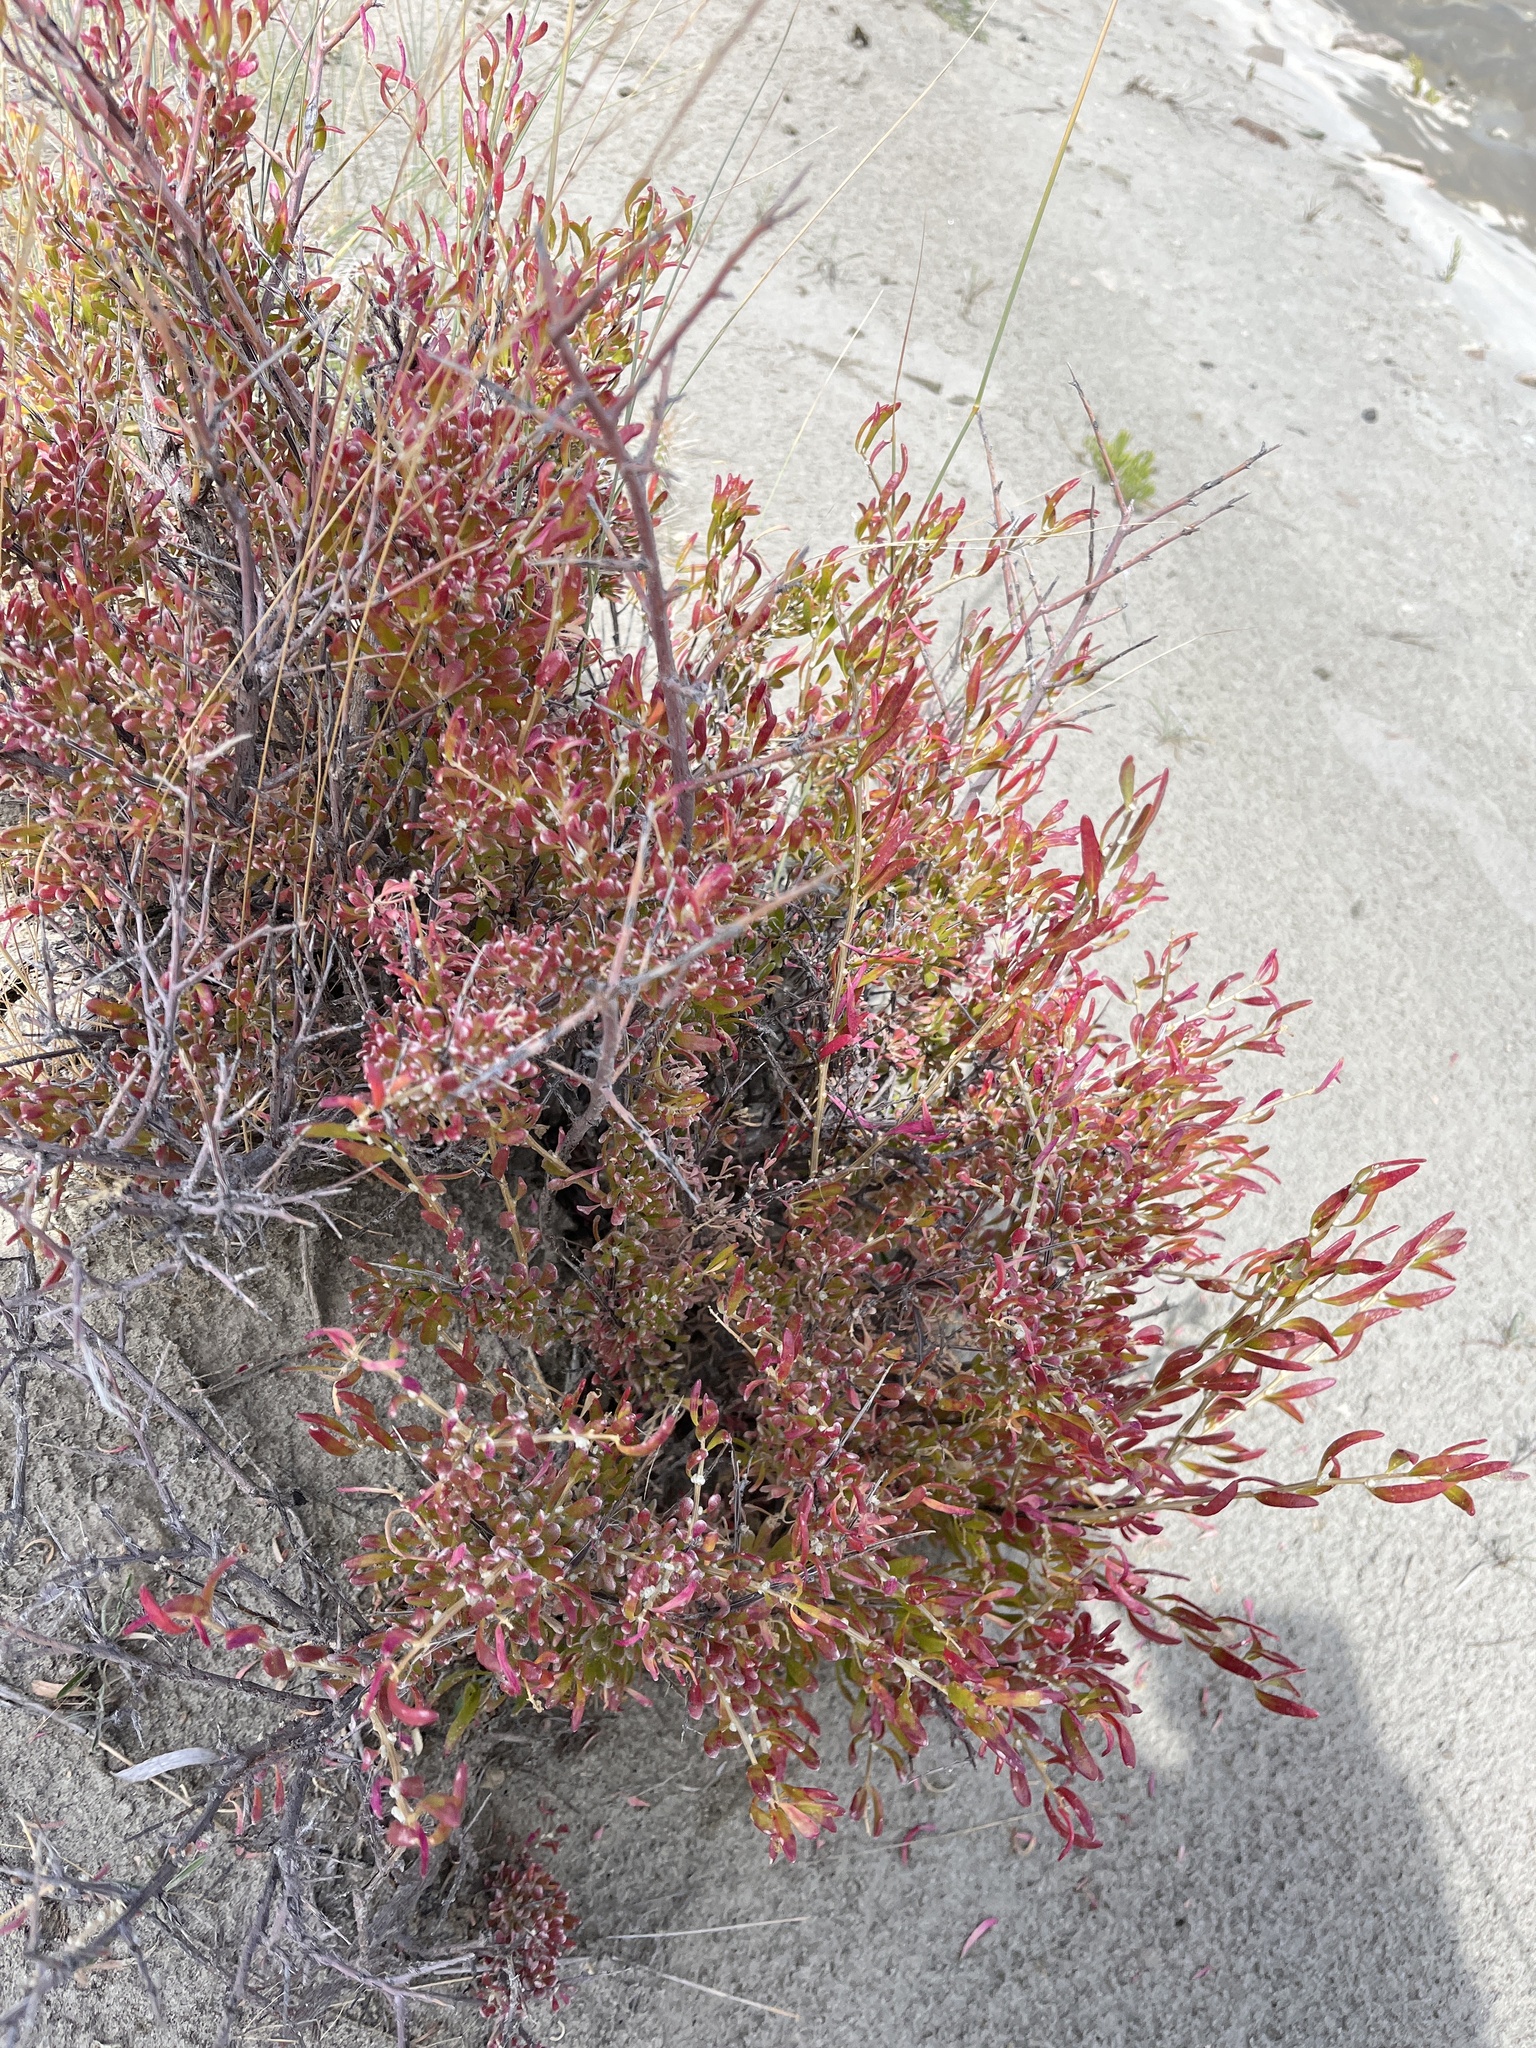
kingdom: Plantae
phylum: Tracheophyta
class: Magnoliopsida
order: Caryophyllales
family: Amaranthaceae
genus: Grayia
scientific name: Grayia spinosa
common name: Spiny hopsage
